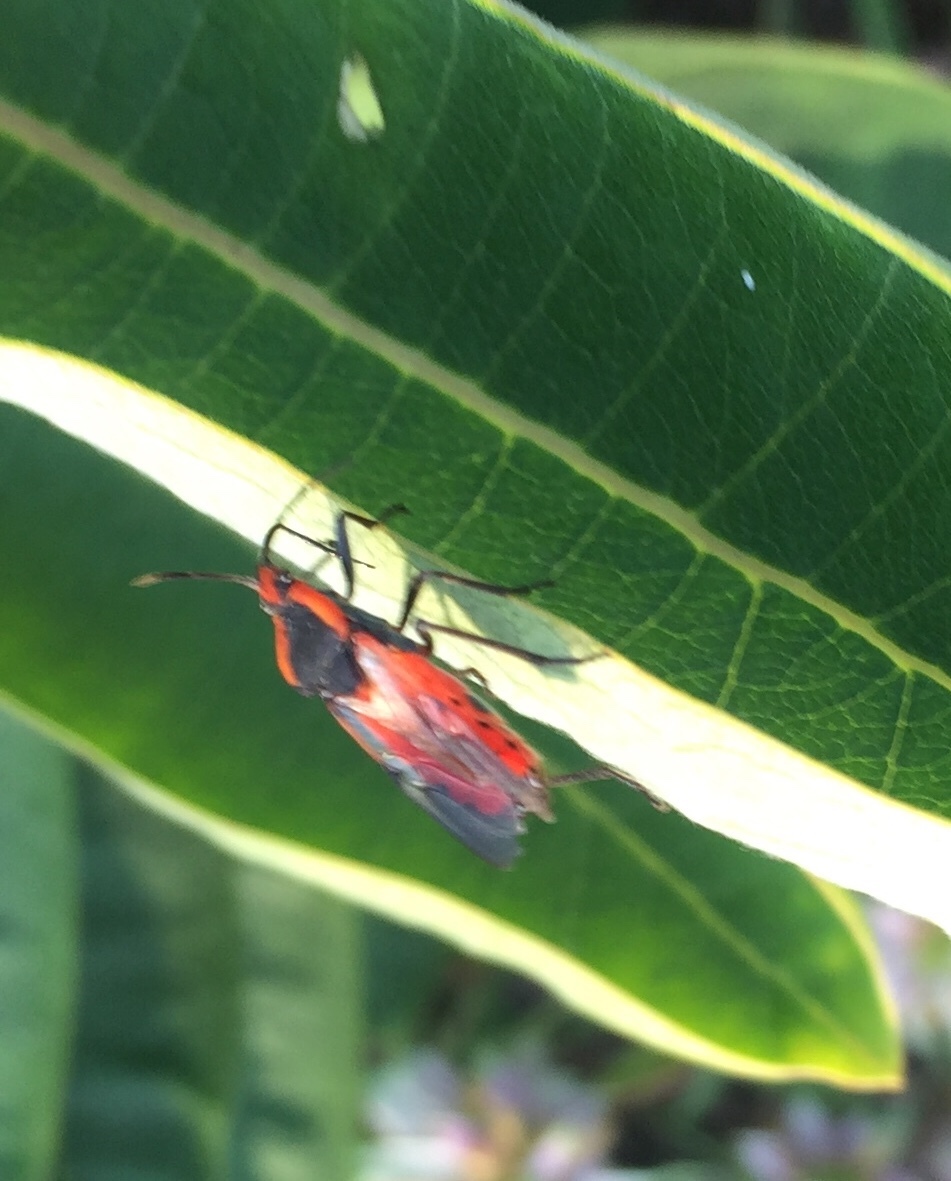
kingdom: Animalia
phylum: Arthropoda
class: Insecta
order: Hemiptera
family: Lygaeidae
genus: Oncopeltus
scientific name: Oncopeltus fasciatus
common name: Large milkweed bug
